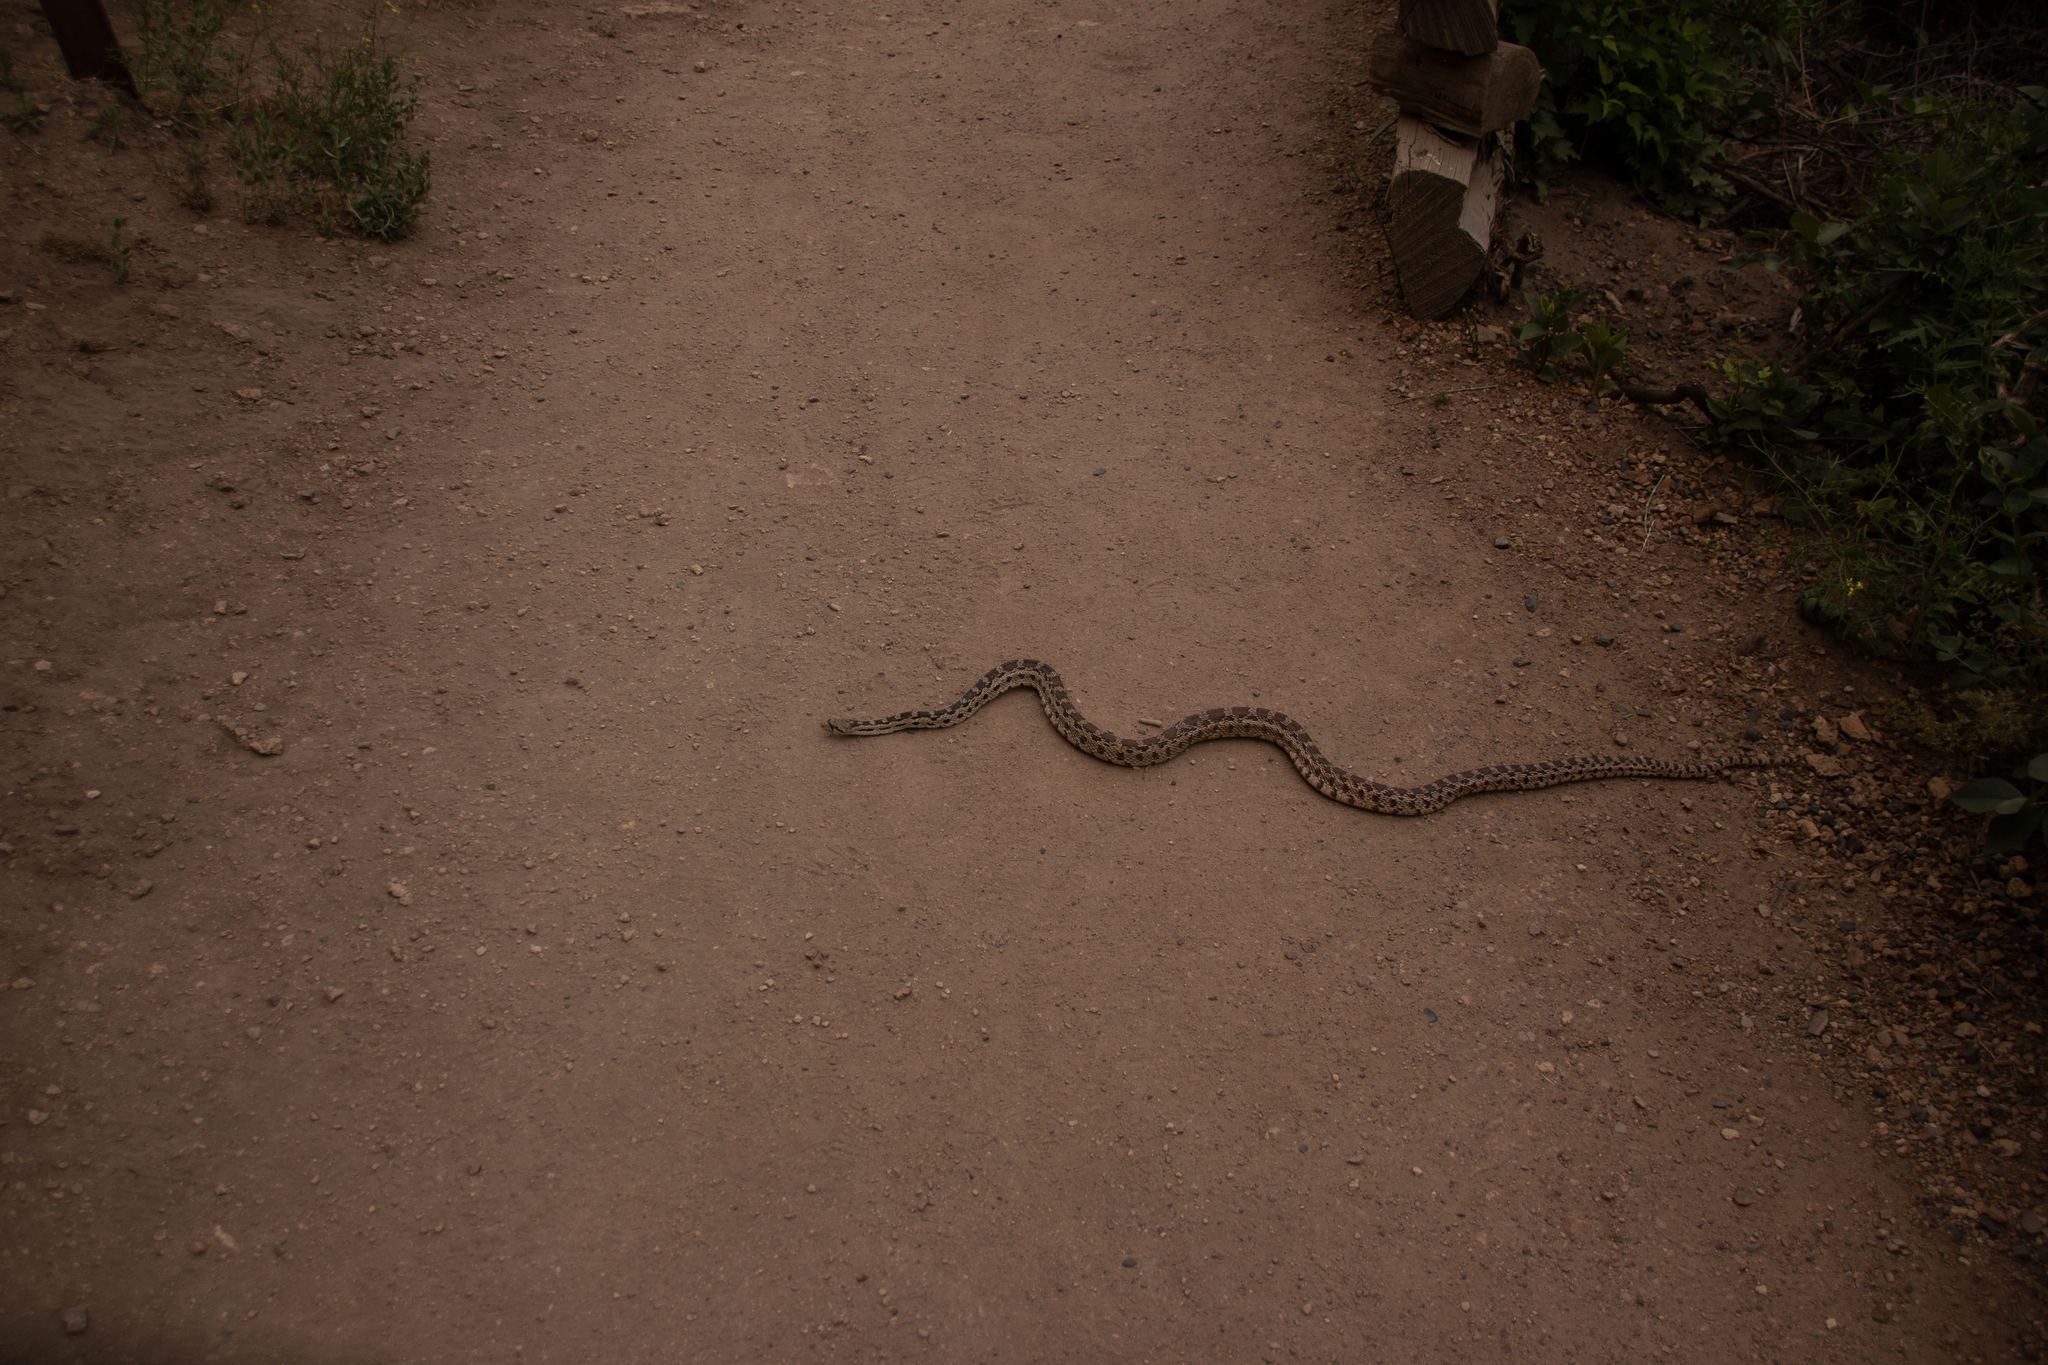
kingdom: Animalia
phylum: Chordata
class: Squamata
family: Colubridae
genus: Pituophis
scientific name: Pituophis catenifer
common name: Gopher snake
